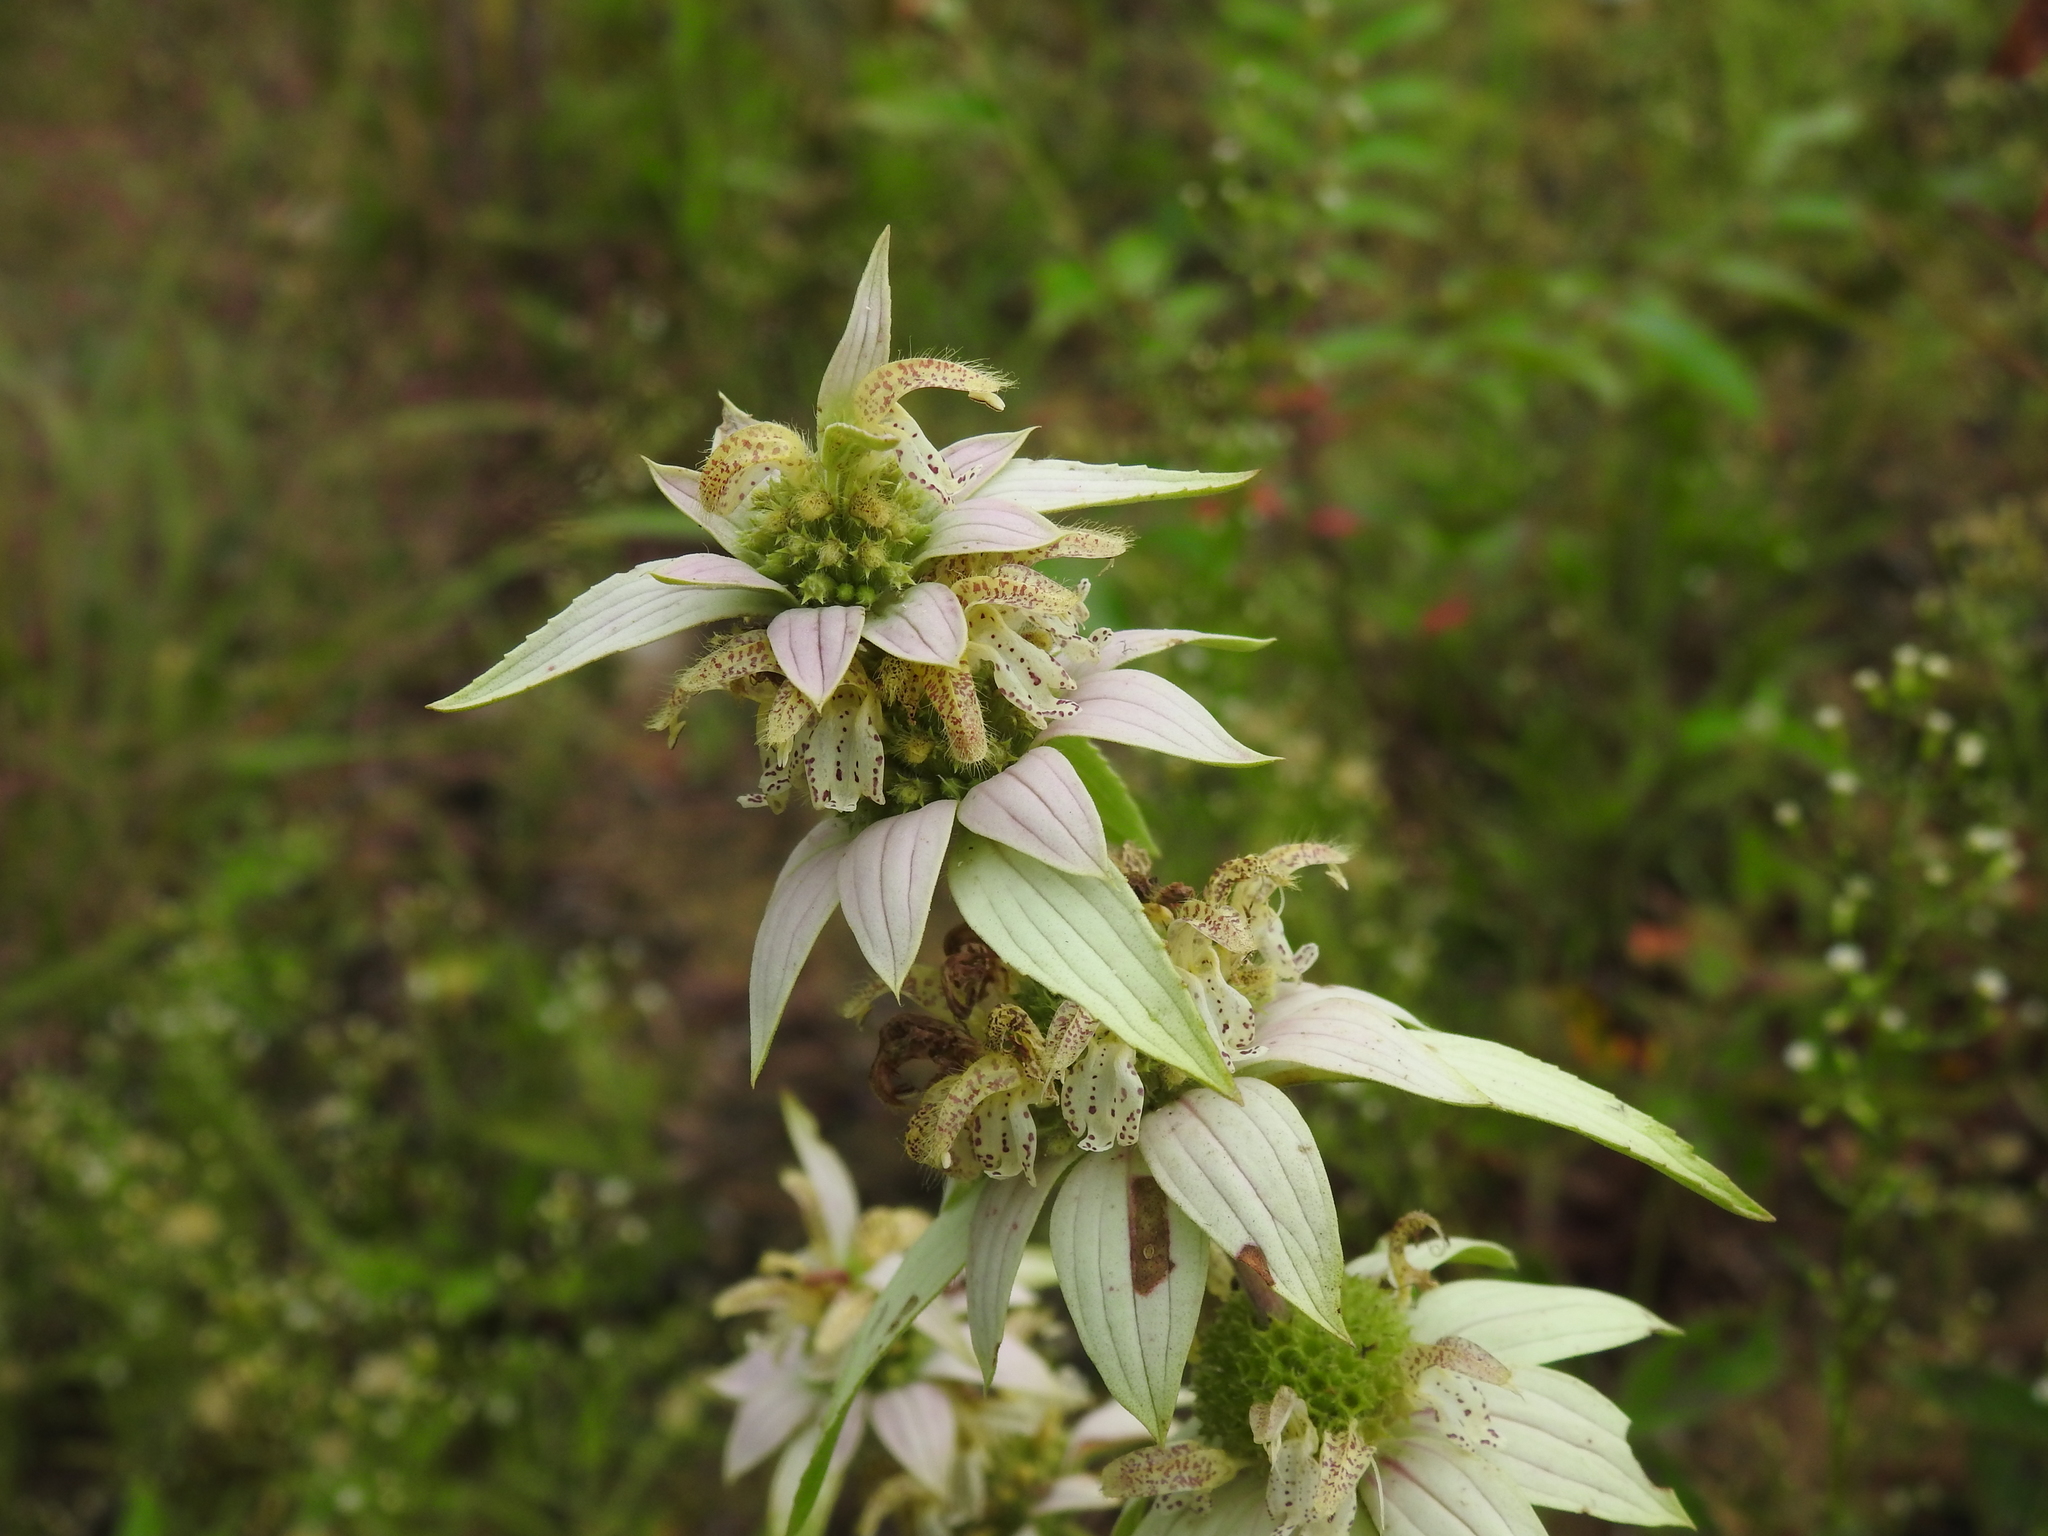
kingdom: Plantae
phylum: Tracheophyta
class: Magnoliopsida
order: Lamiales
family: Lamiaceae
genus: Monarda
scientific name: Monarda punctata
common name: Dotted monarda
